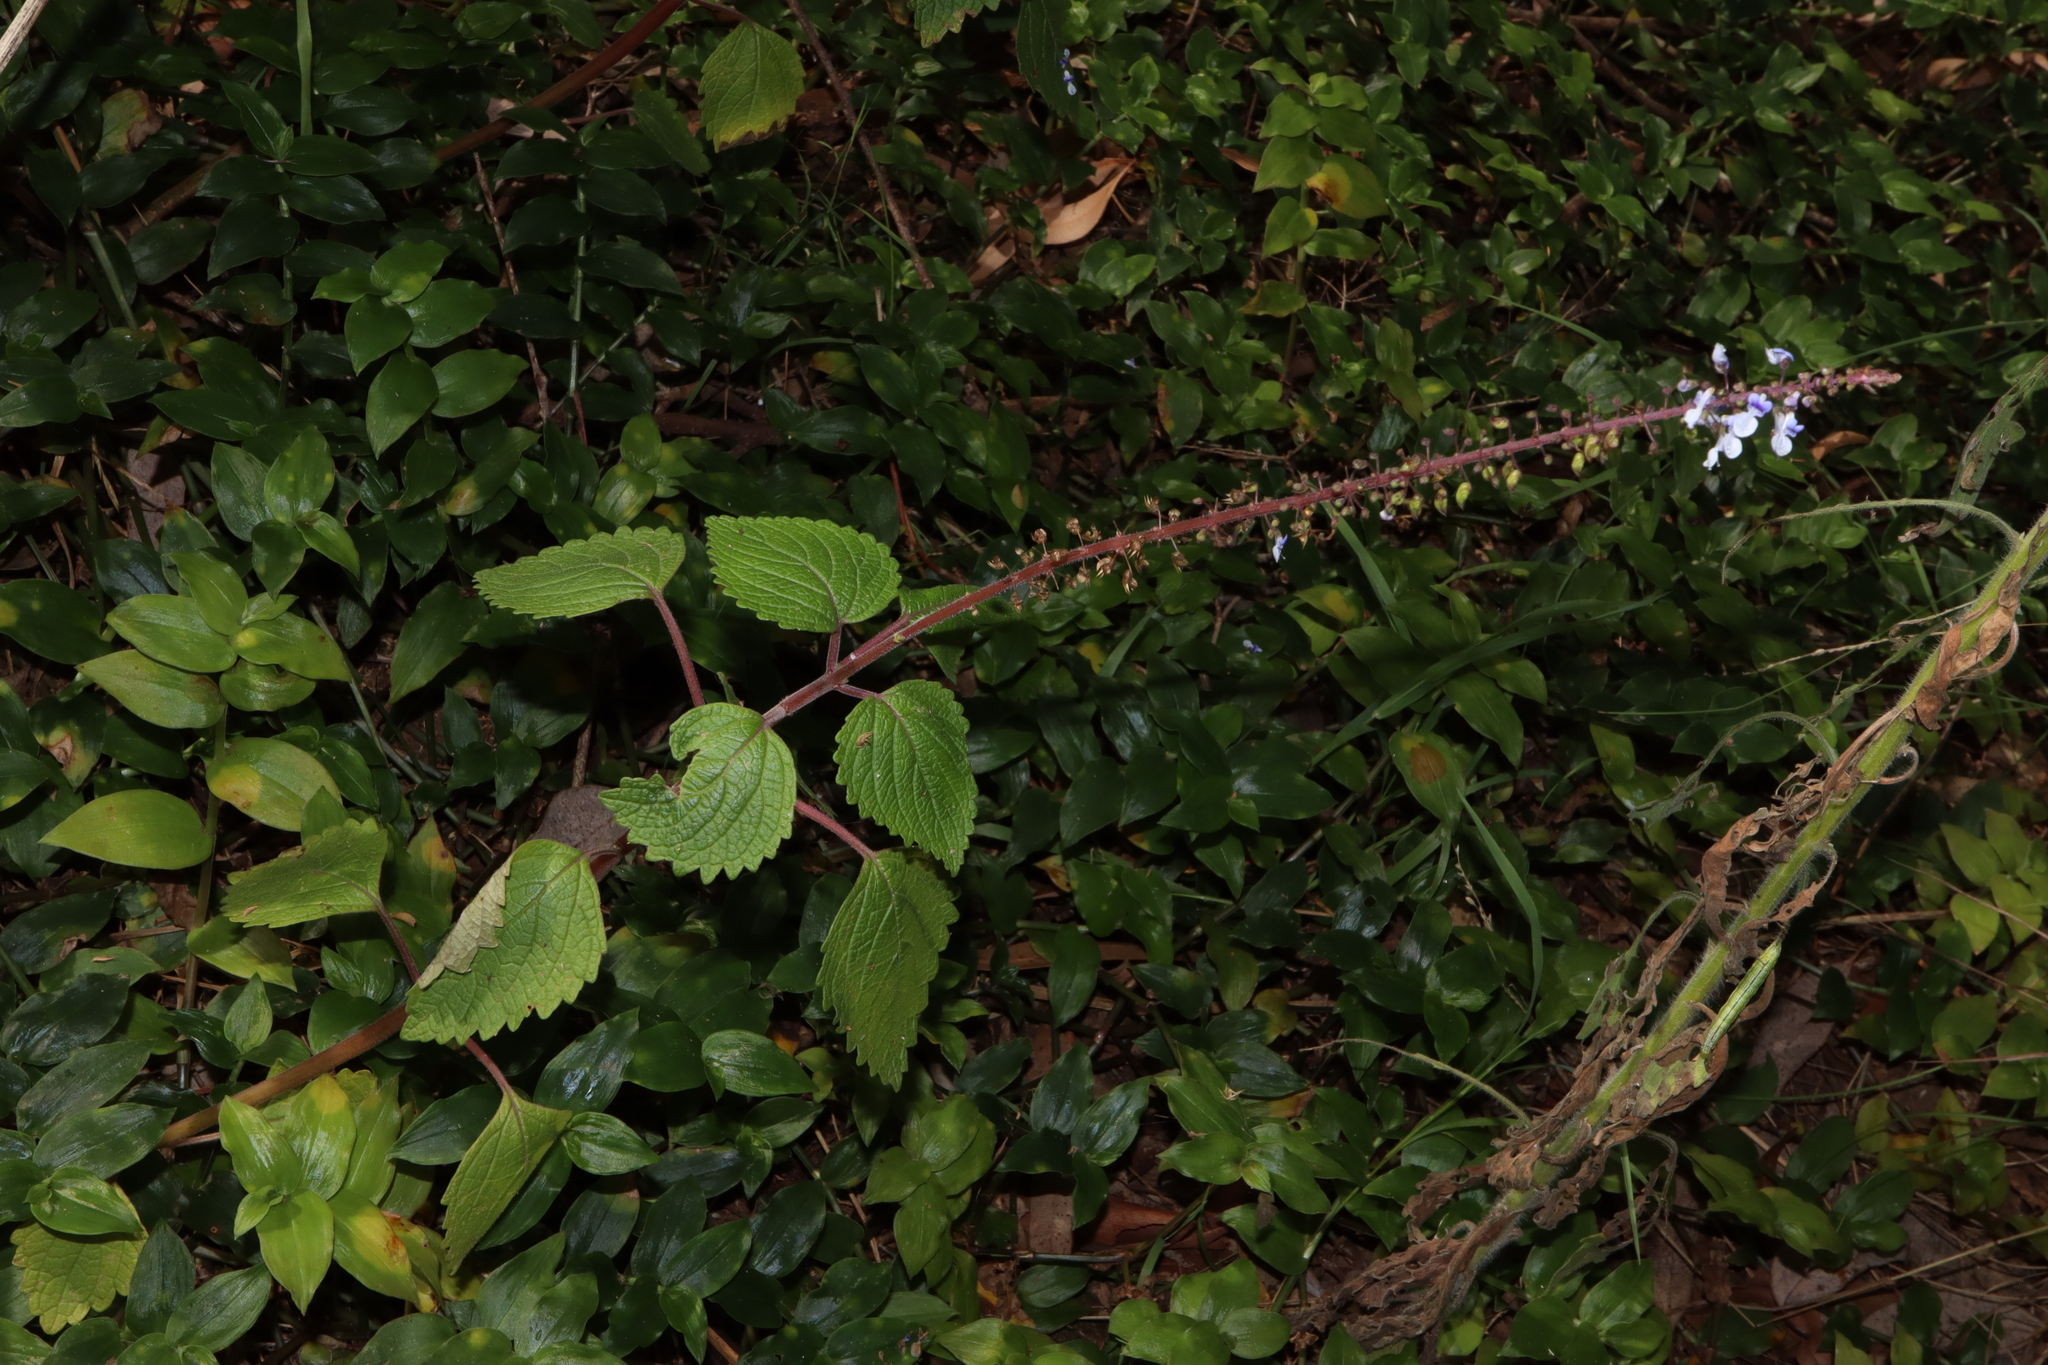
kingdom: Plantae
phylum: Tracheophyta
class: Magnoliopsida
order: Lamiales
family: Lamiaceae
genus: Coleus
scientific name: Coleus australis
